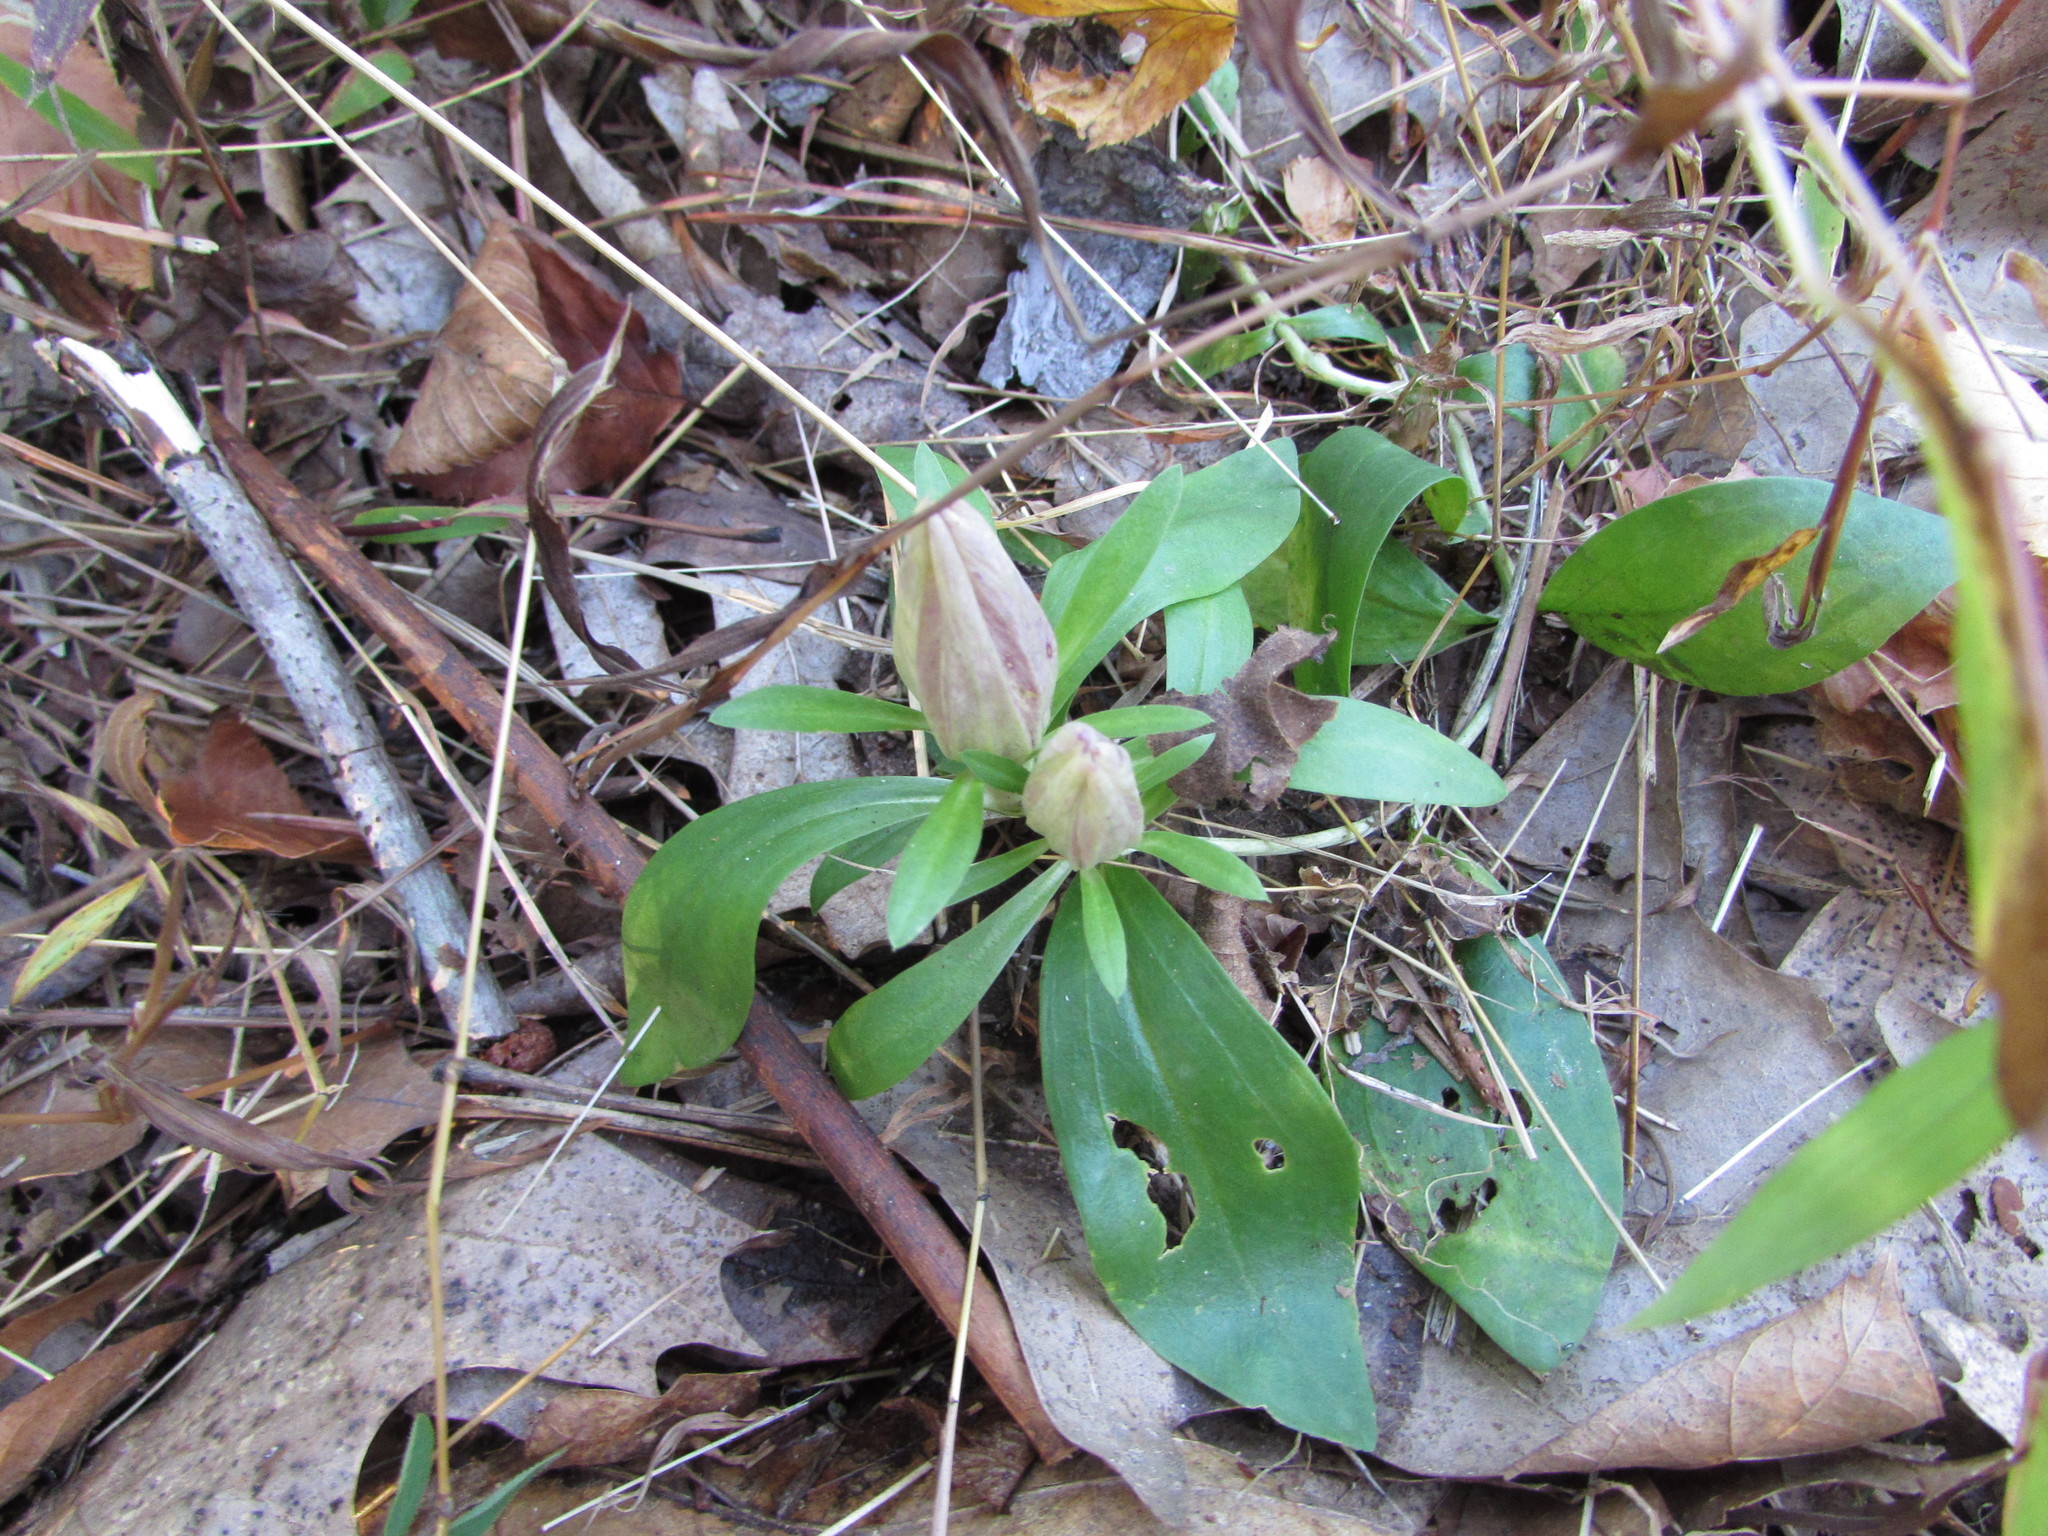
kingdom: Plantae
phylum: Tracheophyta
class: Magnoliopsida
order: Gentianales
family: Gentianaceae
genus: Gentiana
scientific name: Gentiana villosa
